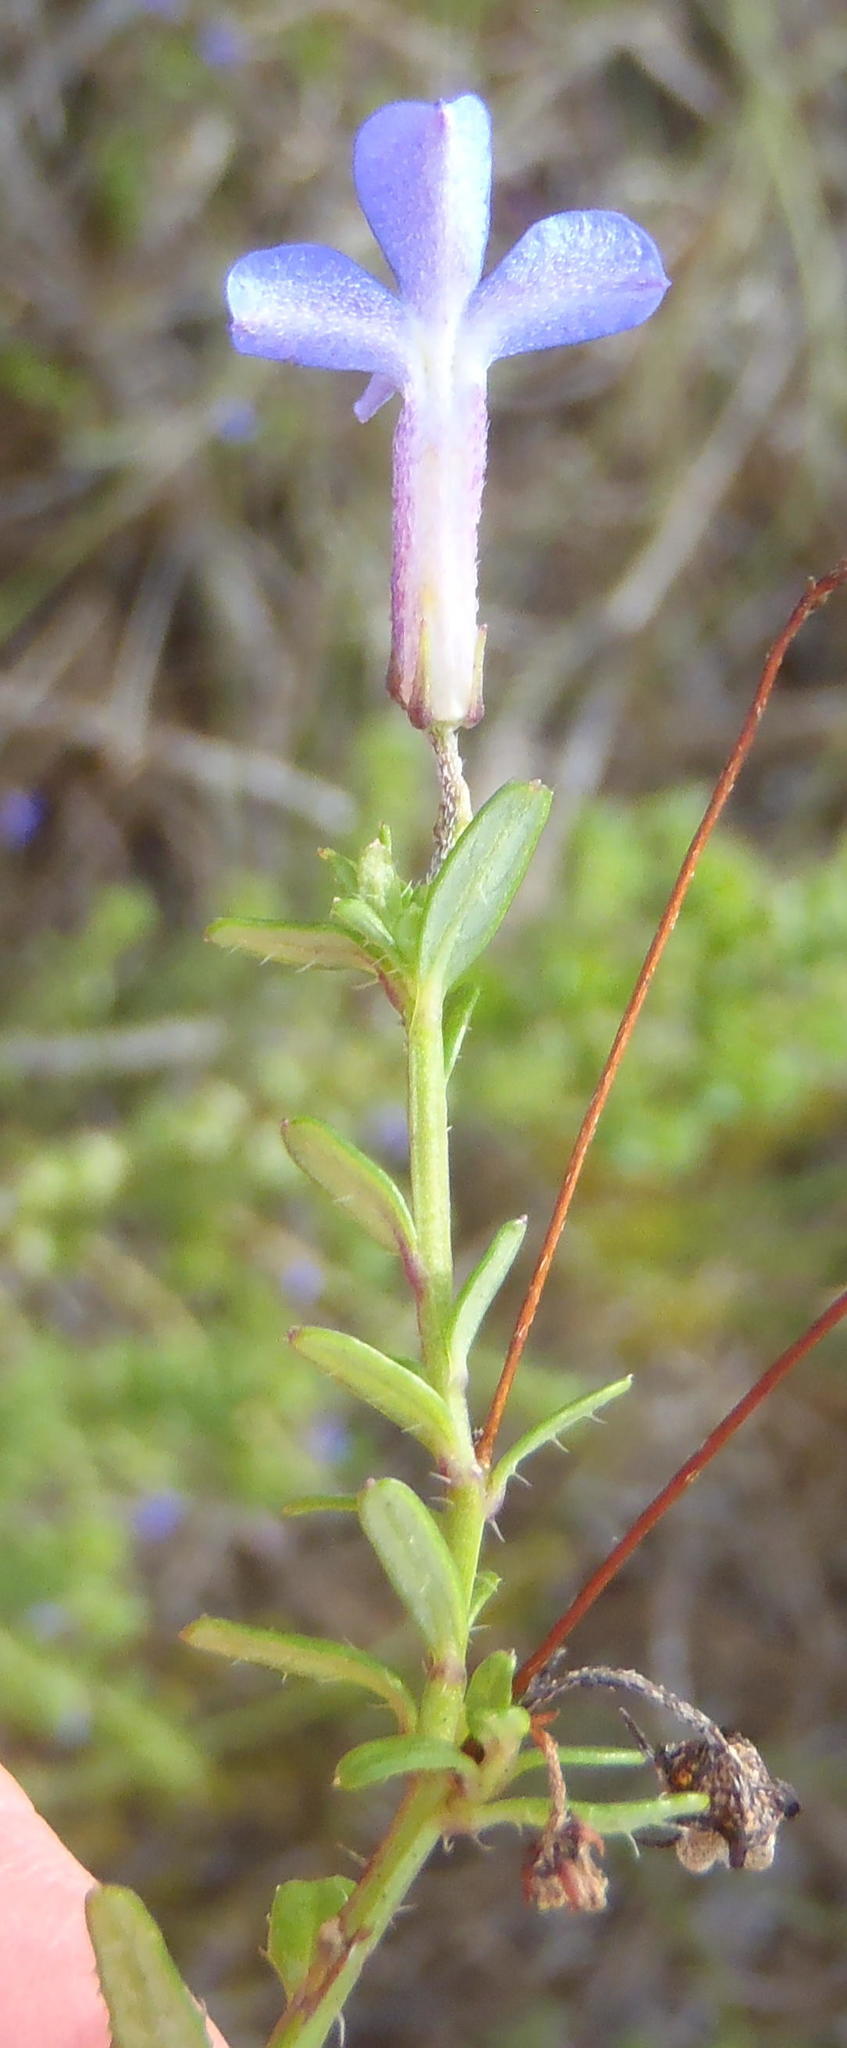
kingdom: Plantae
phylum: Tracheophyta
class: Magnoliopsida
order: Asterales
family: Campanulaceae
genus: Lobelia
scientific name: Lobelia neglecta
